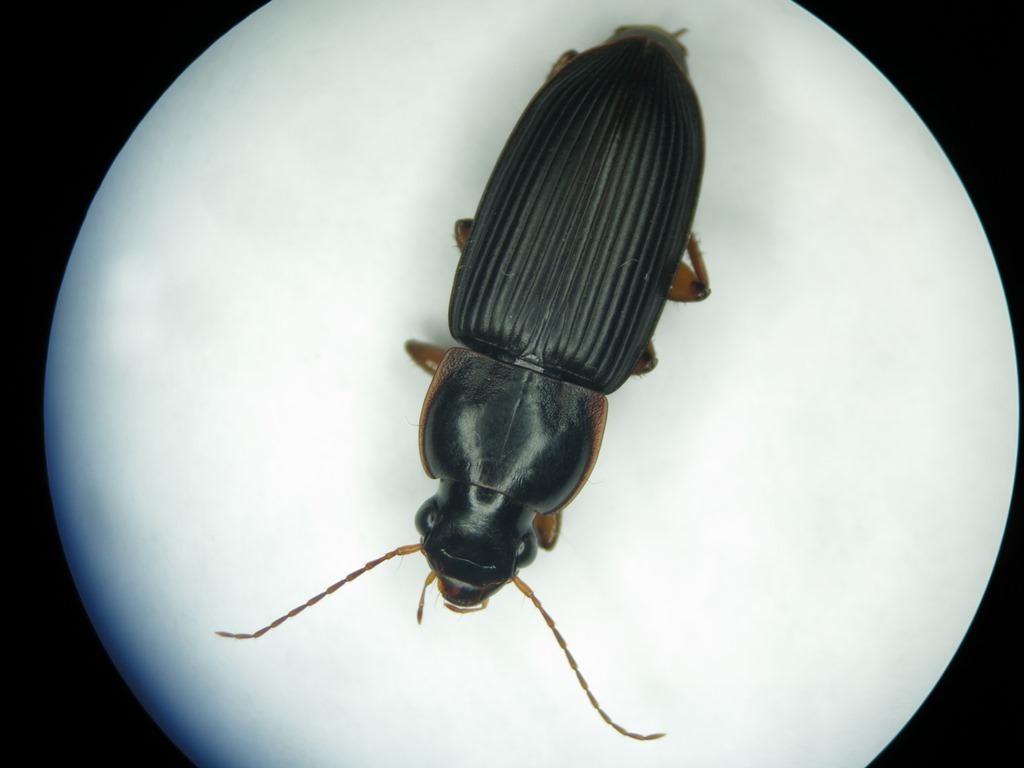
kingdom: Animalia
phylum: Arthropoda
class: Insecta
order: Coleoptera
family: Carabidae
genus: Harpalus
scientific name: Harpalus pensylvanicus
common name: Pennsylvania dingy ground beetle
